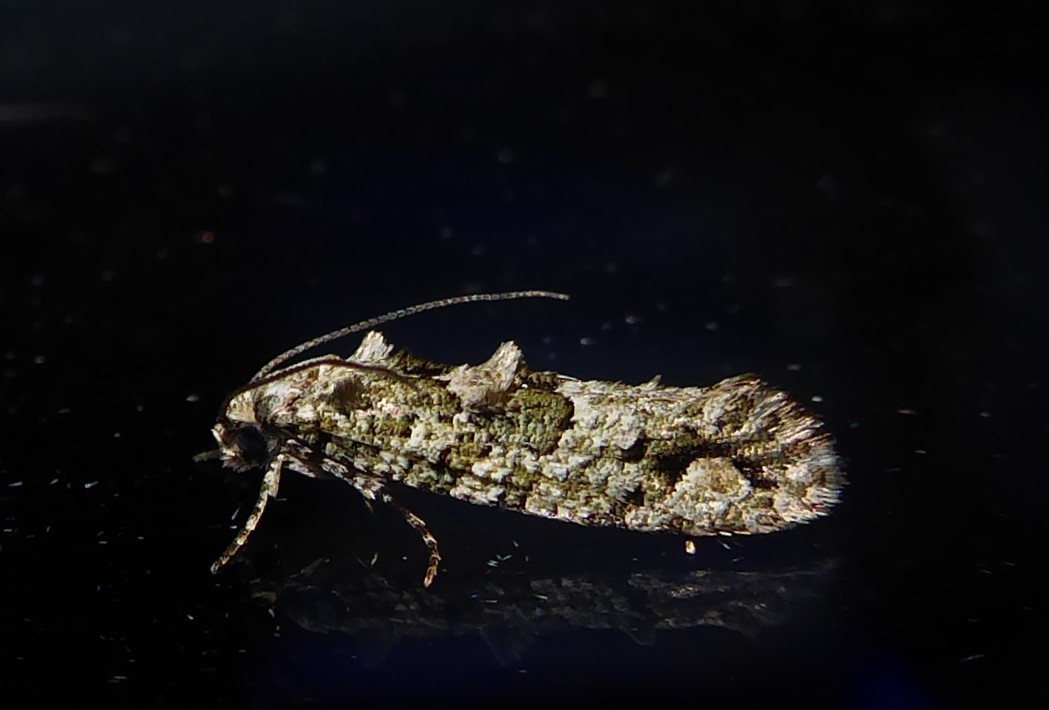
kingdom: Animalia
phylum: Arthropoda
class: Insecta
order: Lepidoptera
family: Tineidae
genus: Lysiphragma
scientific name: Lysiphragma howesii
